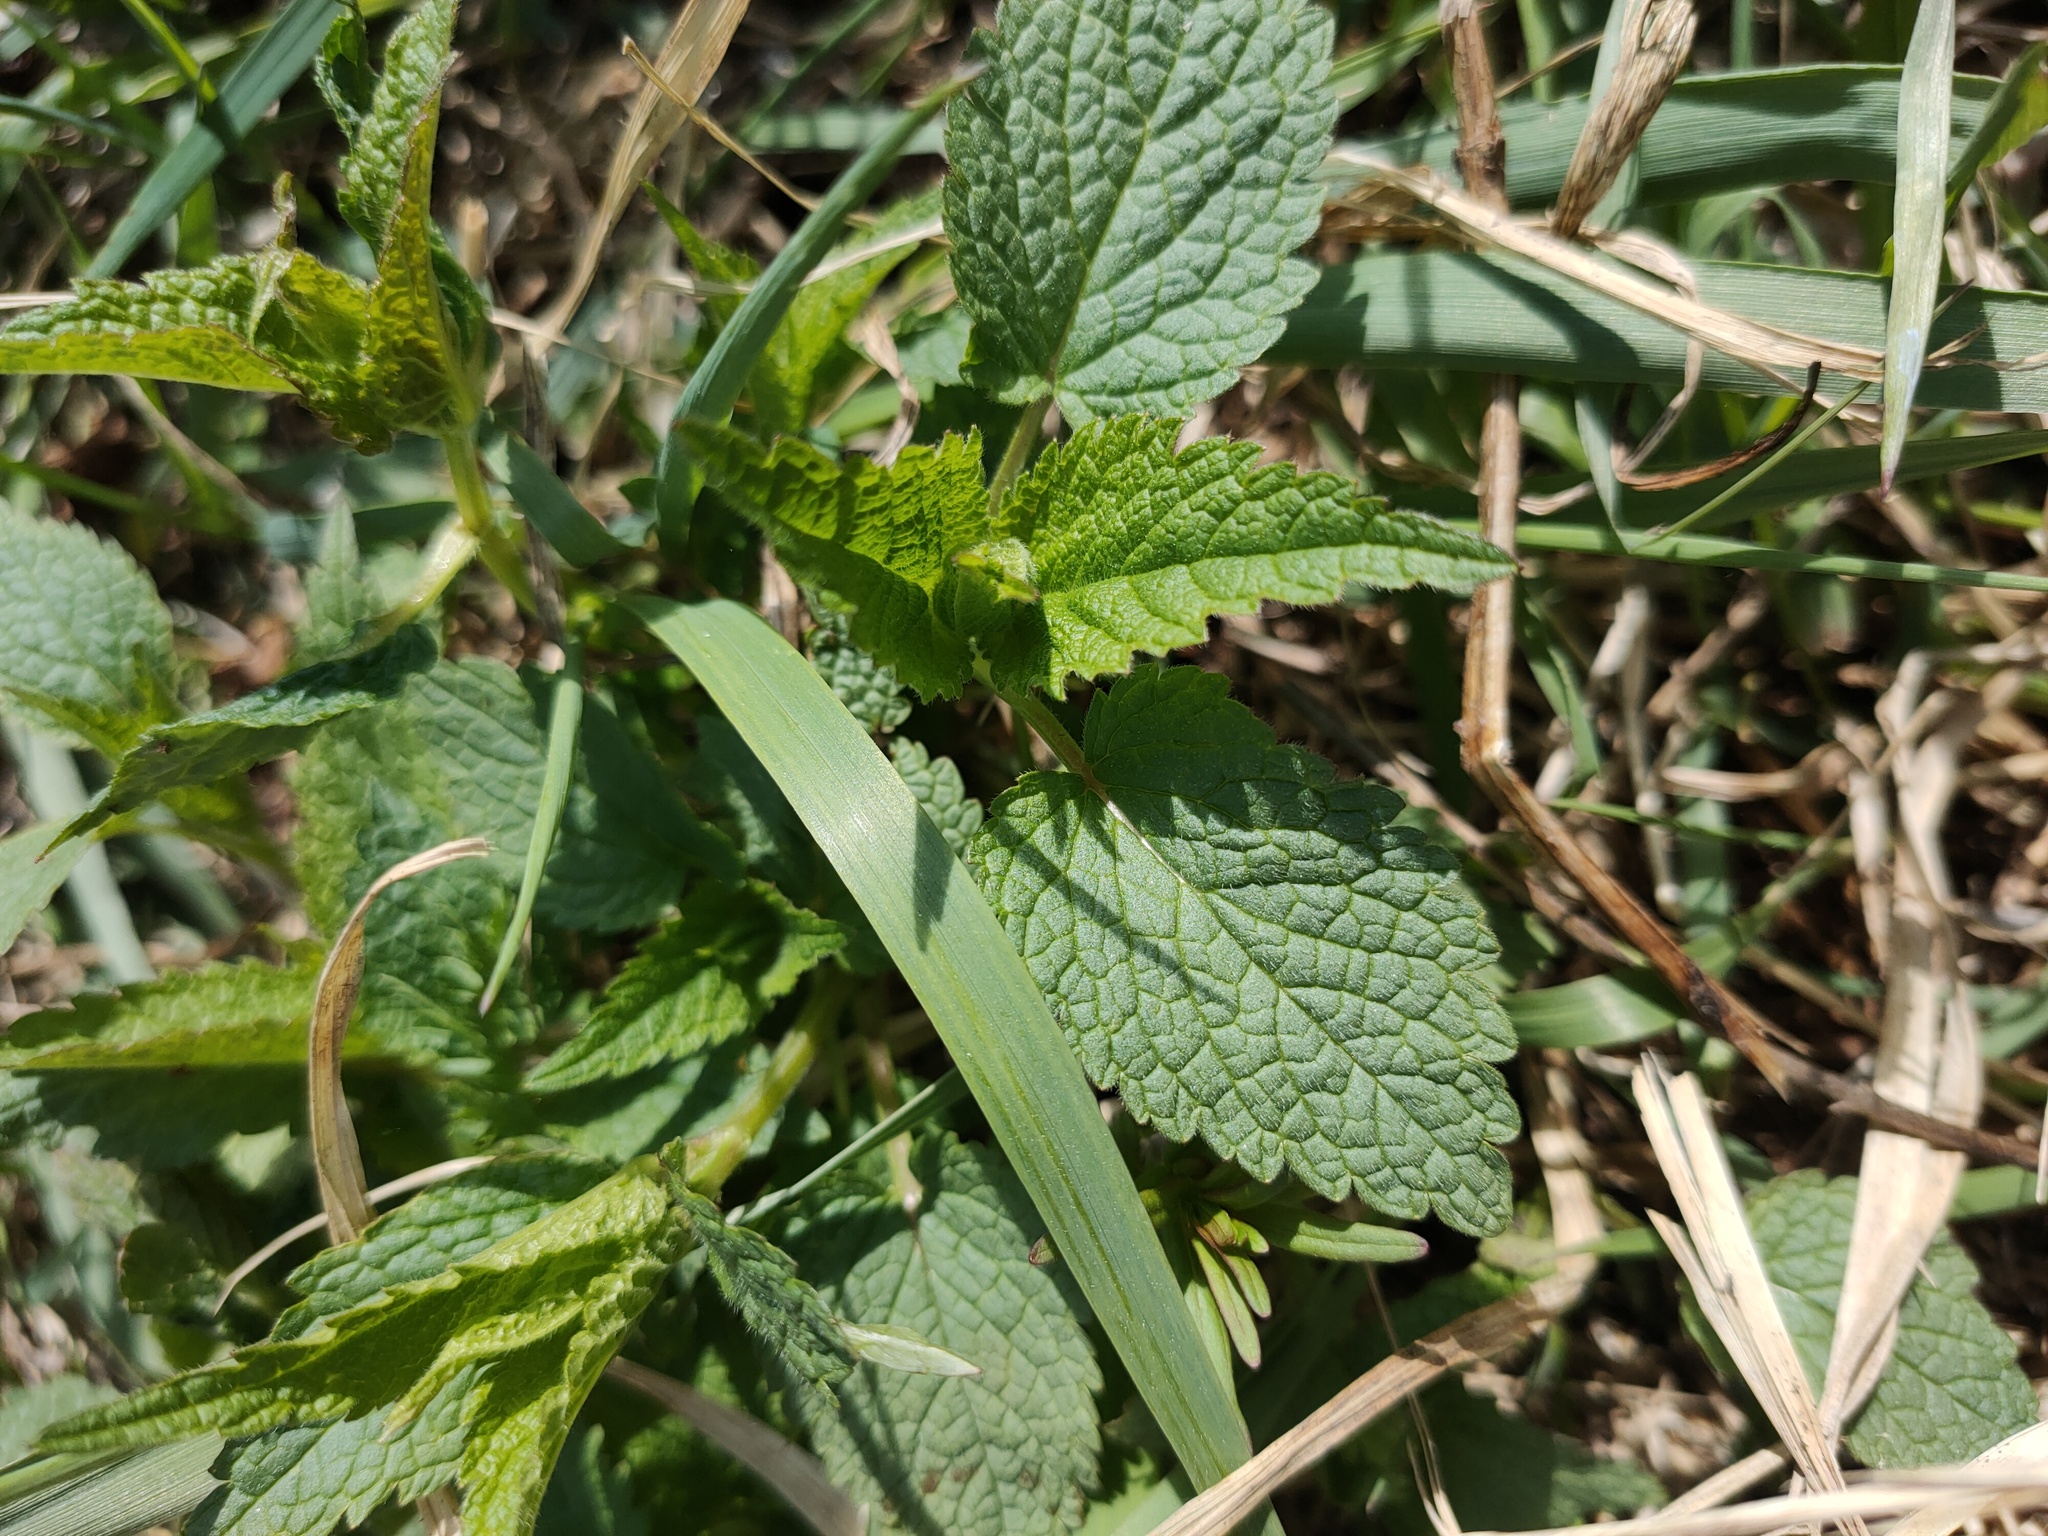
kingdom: Plantae
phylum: Tracheophyta
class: Magnoliopsida
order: Lamiales
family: Lamiaceae
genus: Lamium
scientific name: Lamium album
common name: White dead-nettle
